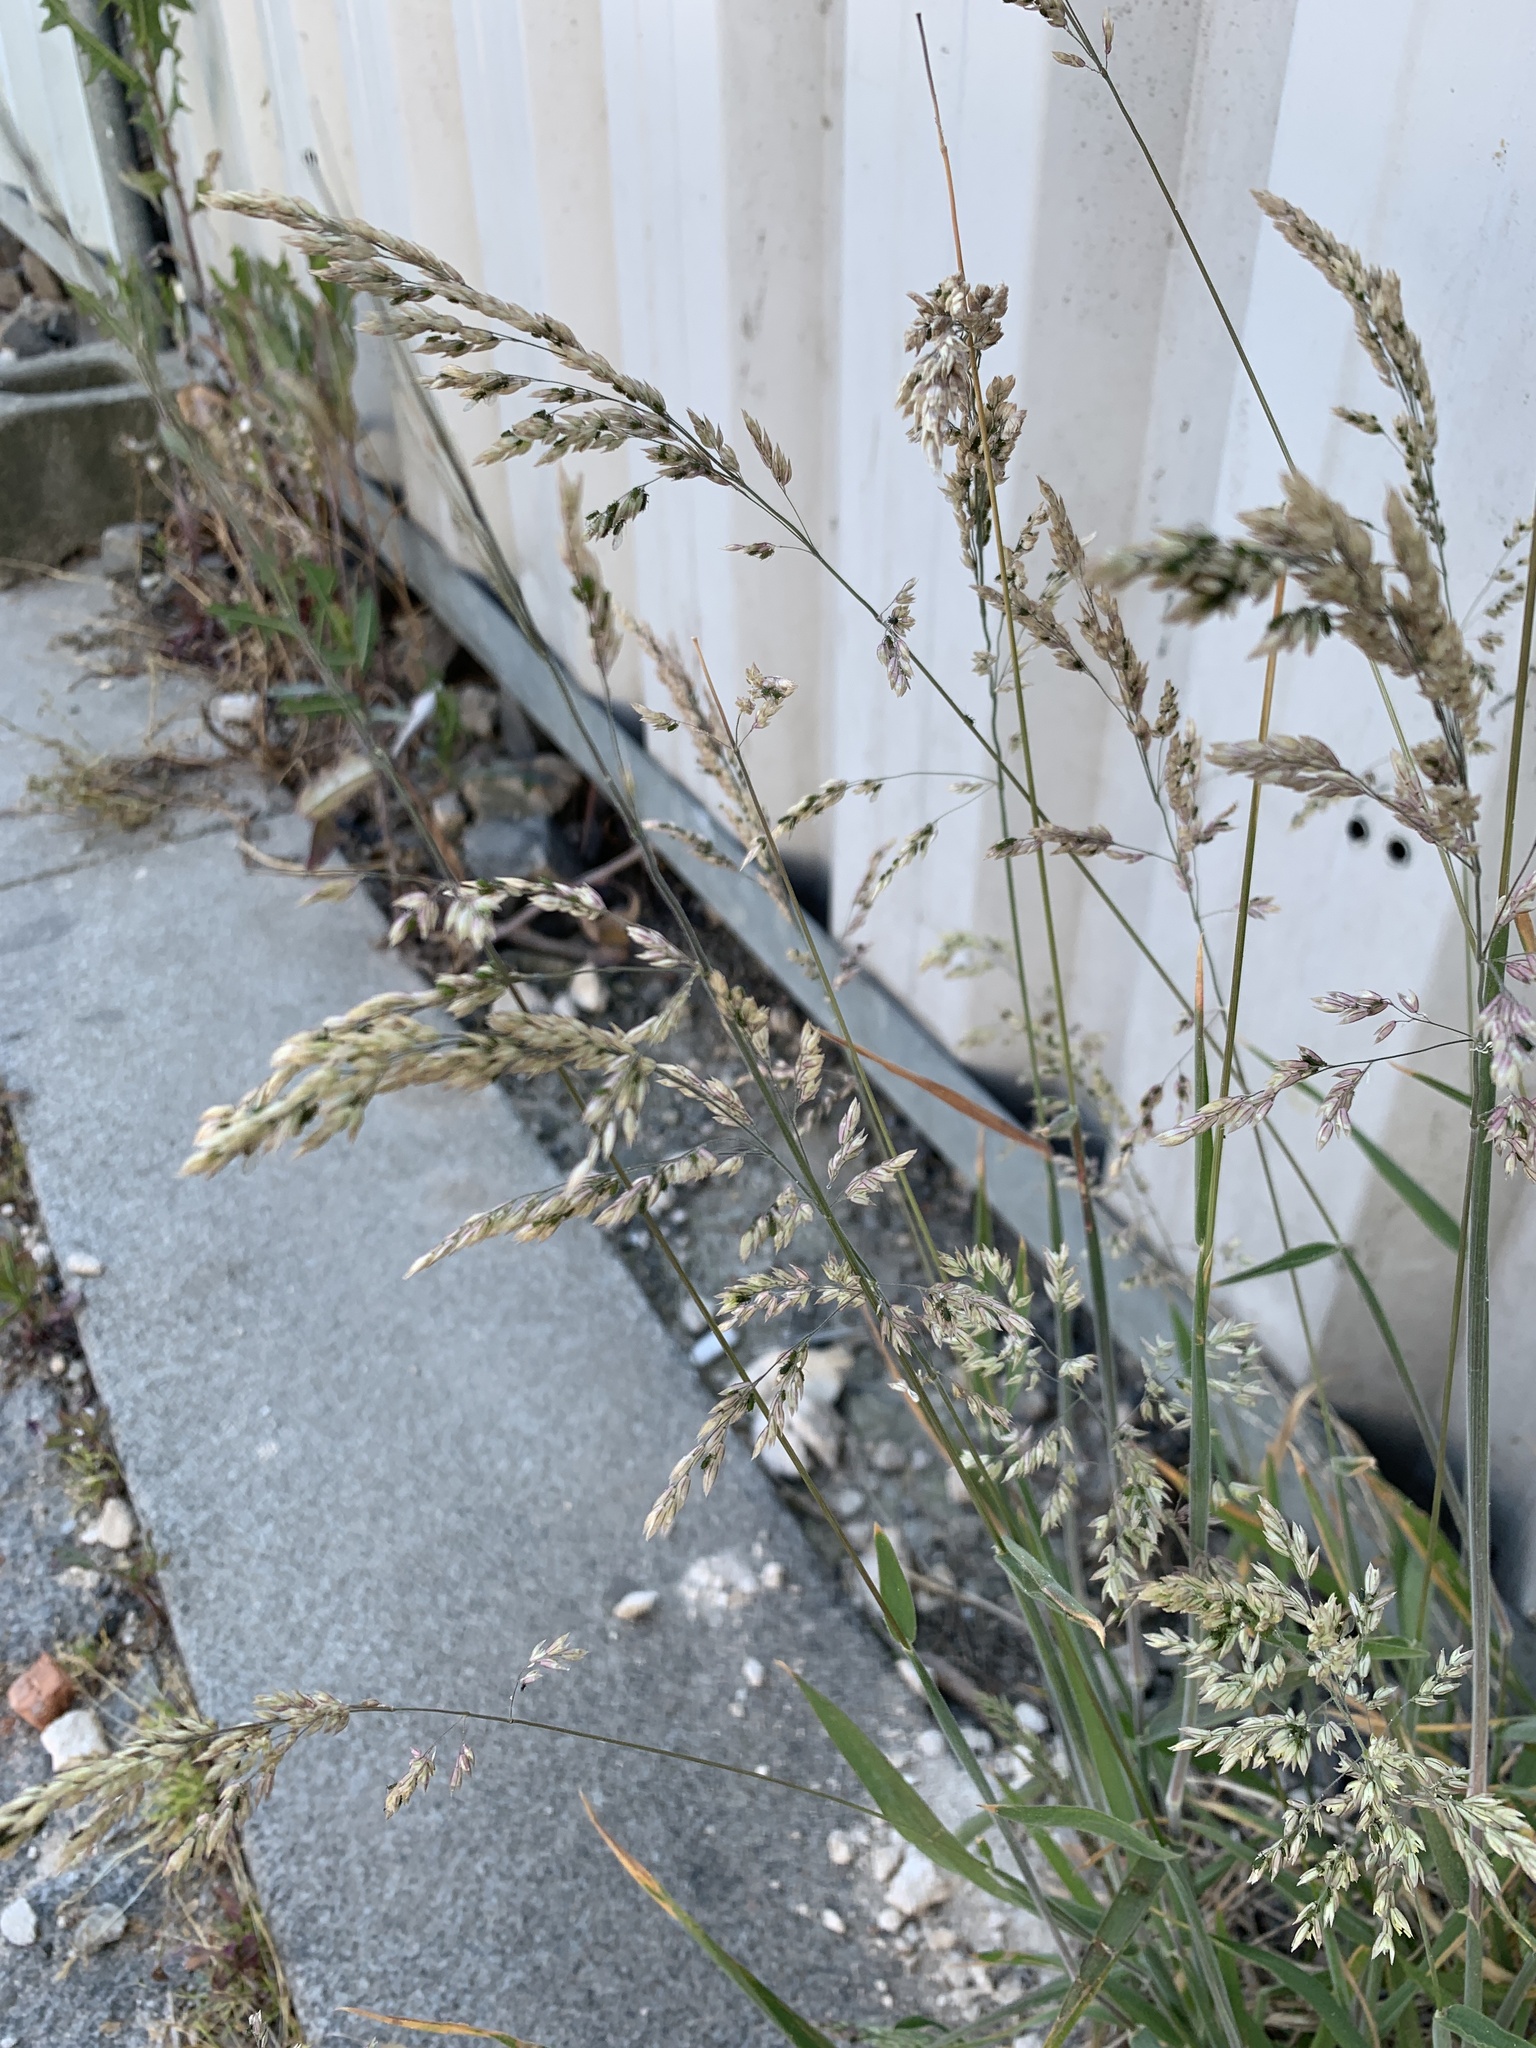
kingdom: Plantae
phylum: Tracheophyta
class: Liliopsida
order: Poales
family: Poaceae
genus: Holcus
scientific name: Holcus lanatus
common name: Yorkshire-fog
